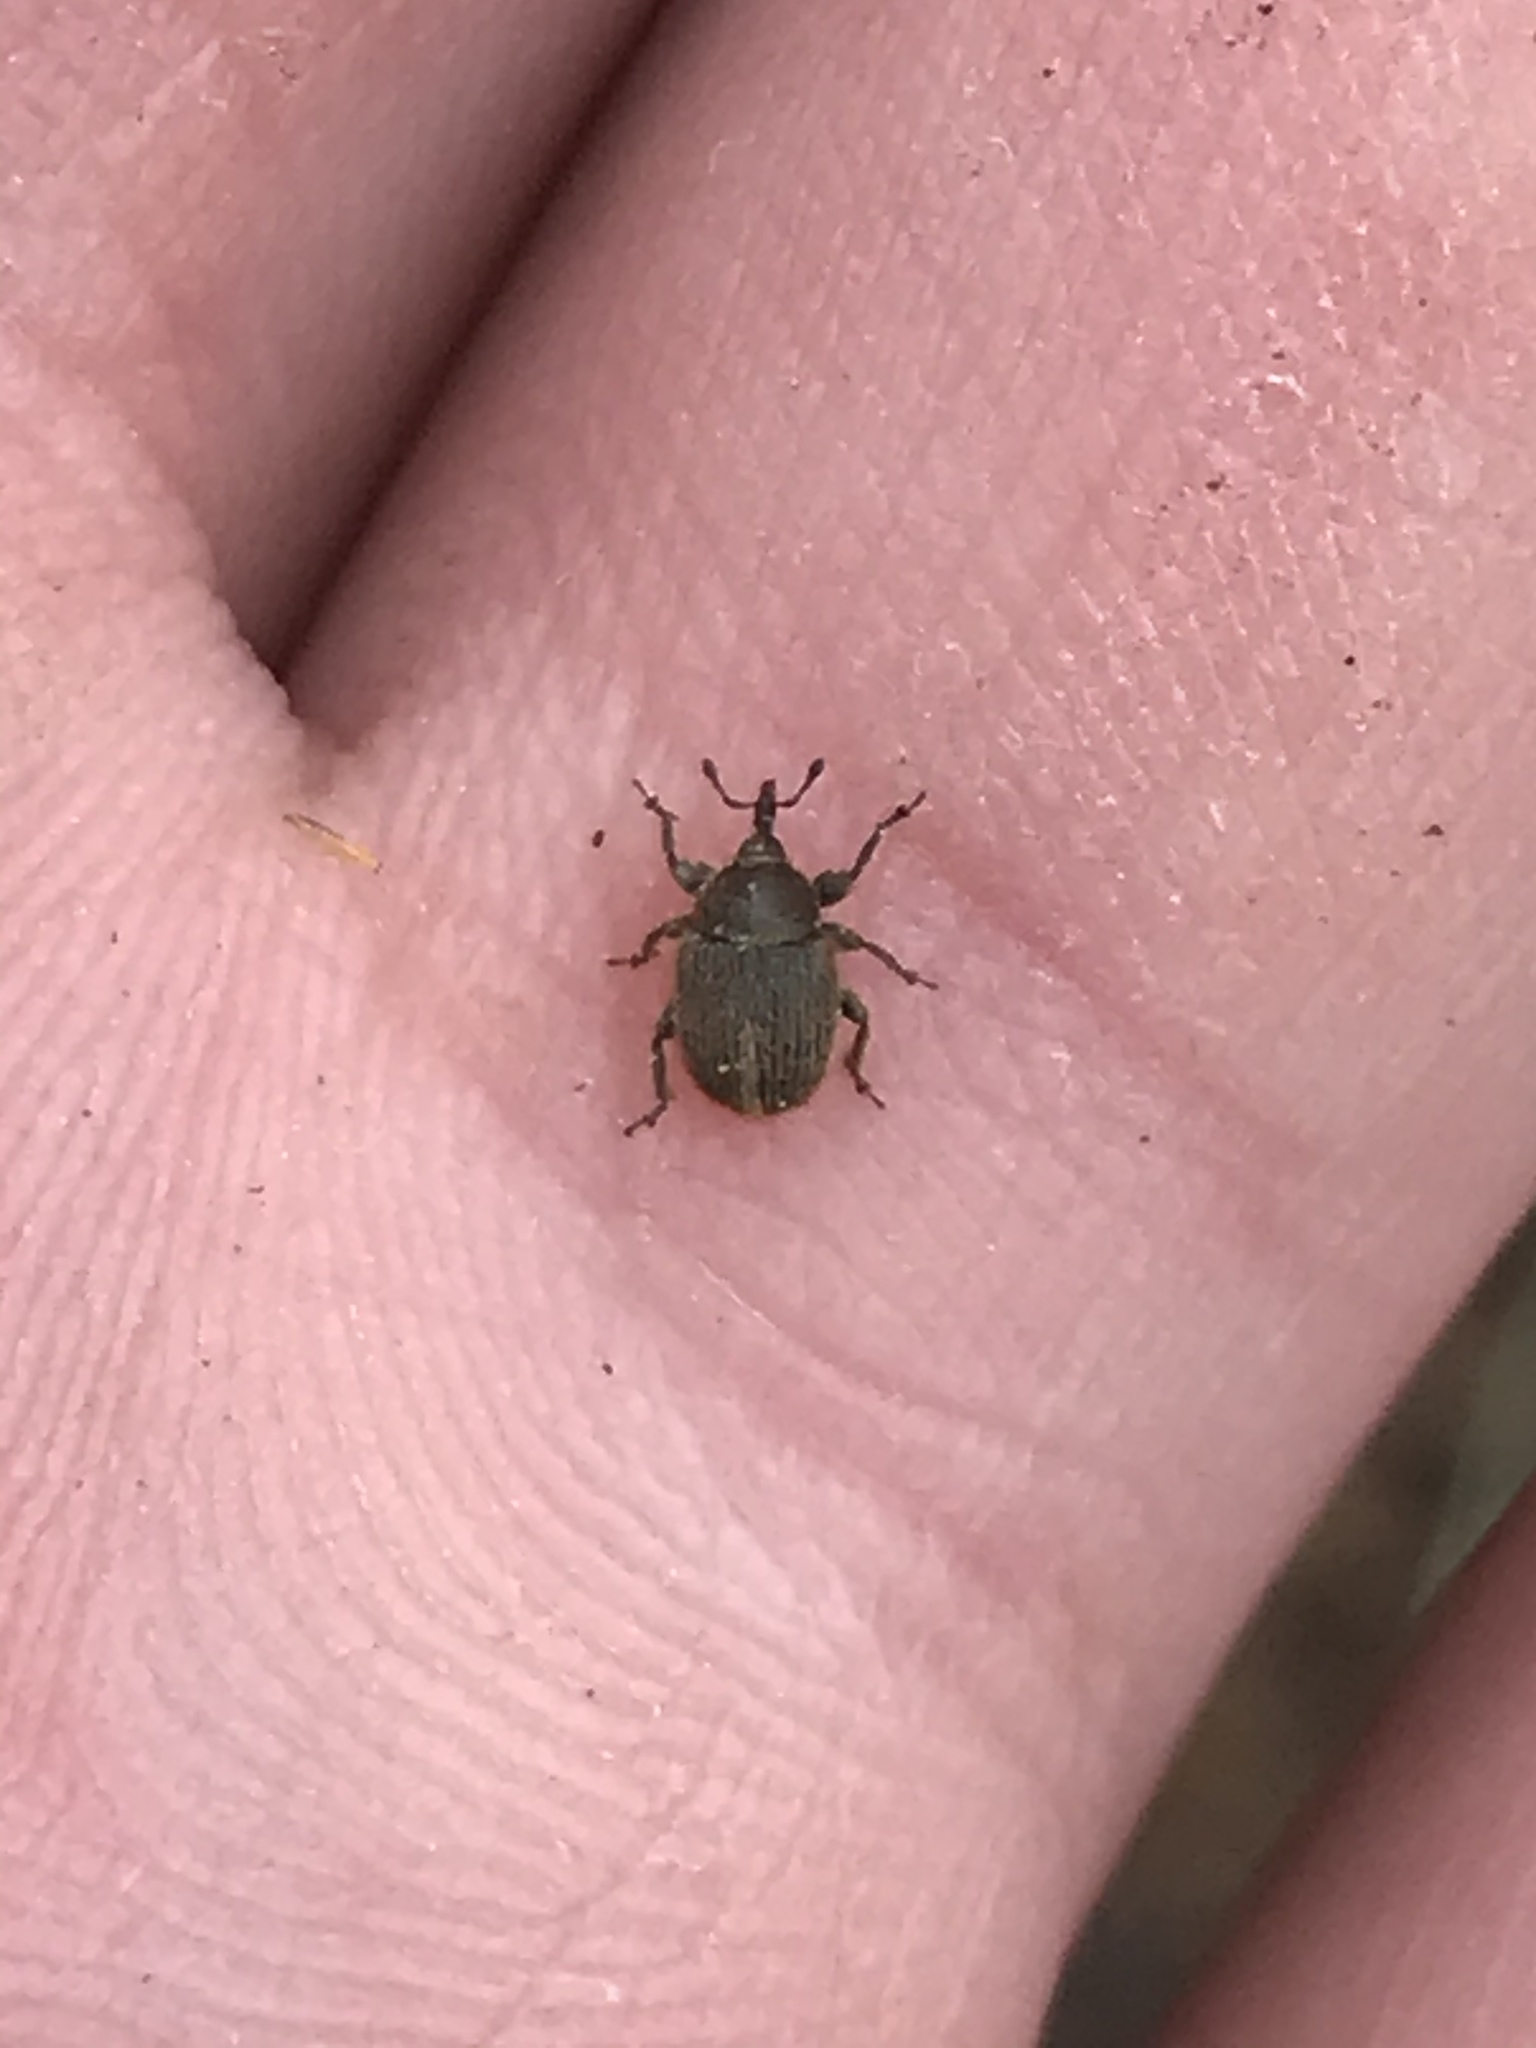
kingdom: Animalia
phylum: Arthropoda
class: Insecta
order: Coleoptera
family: Curculionidae
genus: Rhinusa
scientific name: Rhinusa tetra
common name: Weevil
